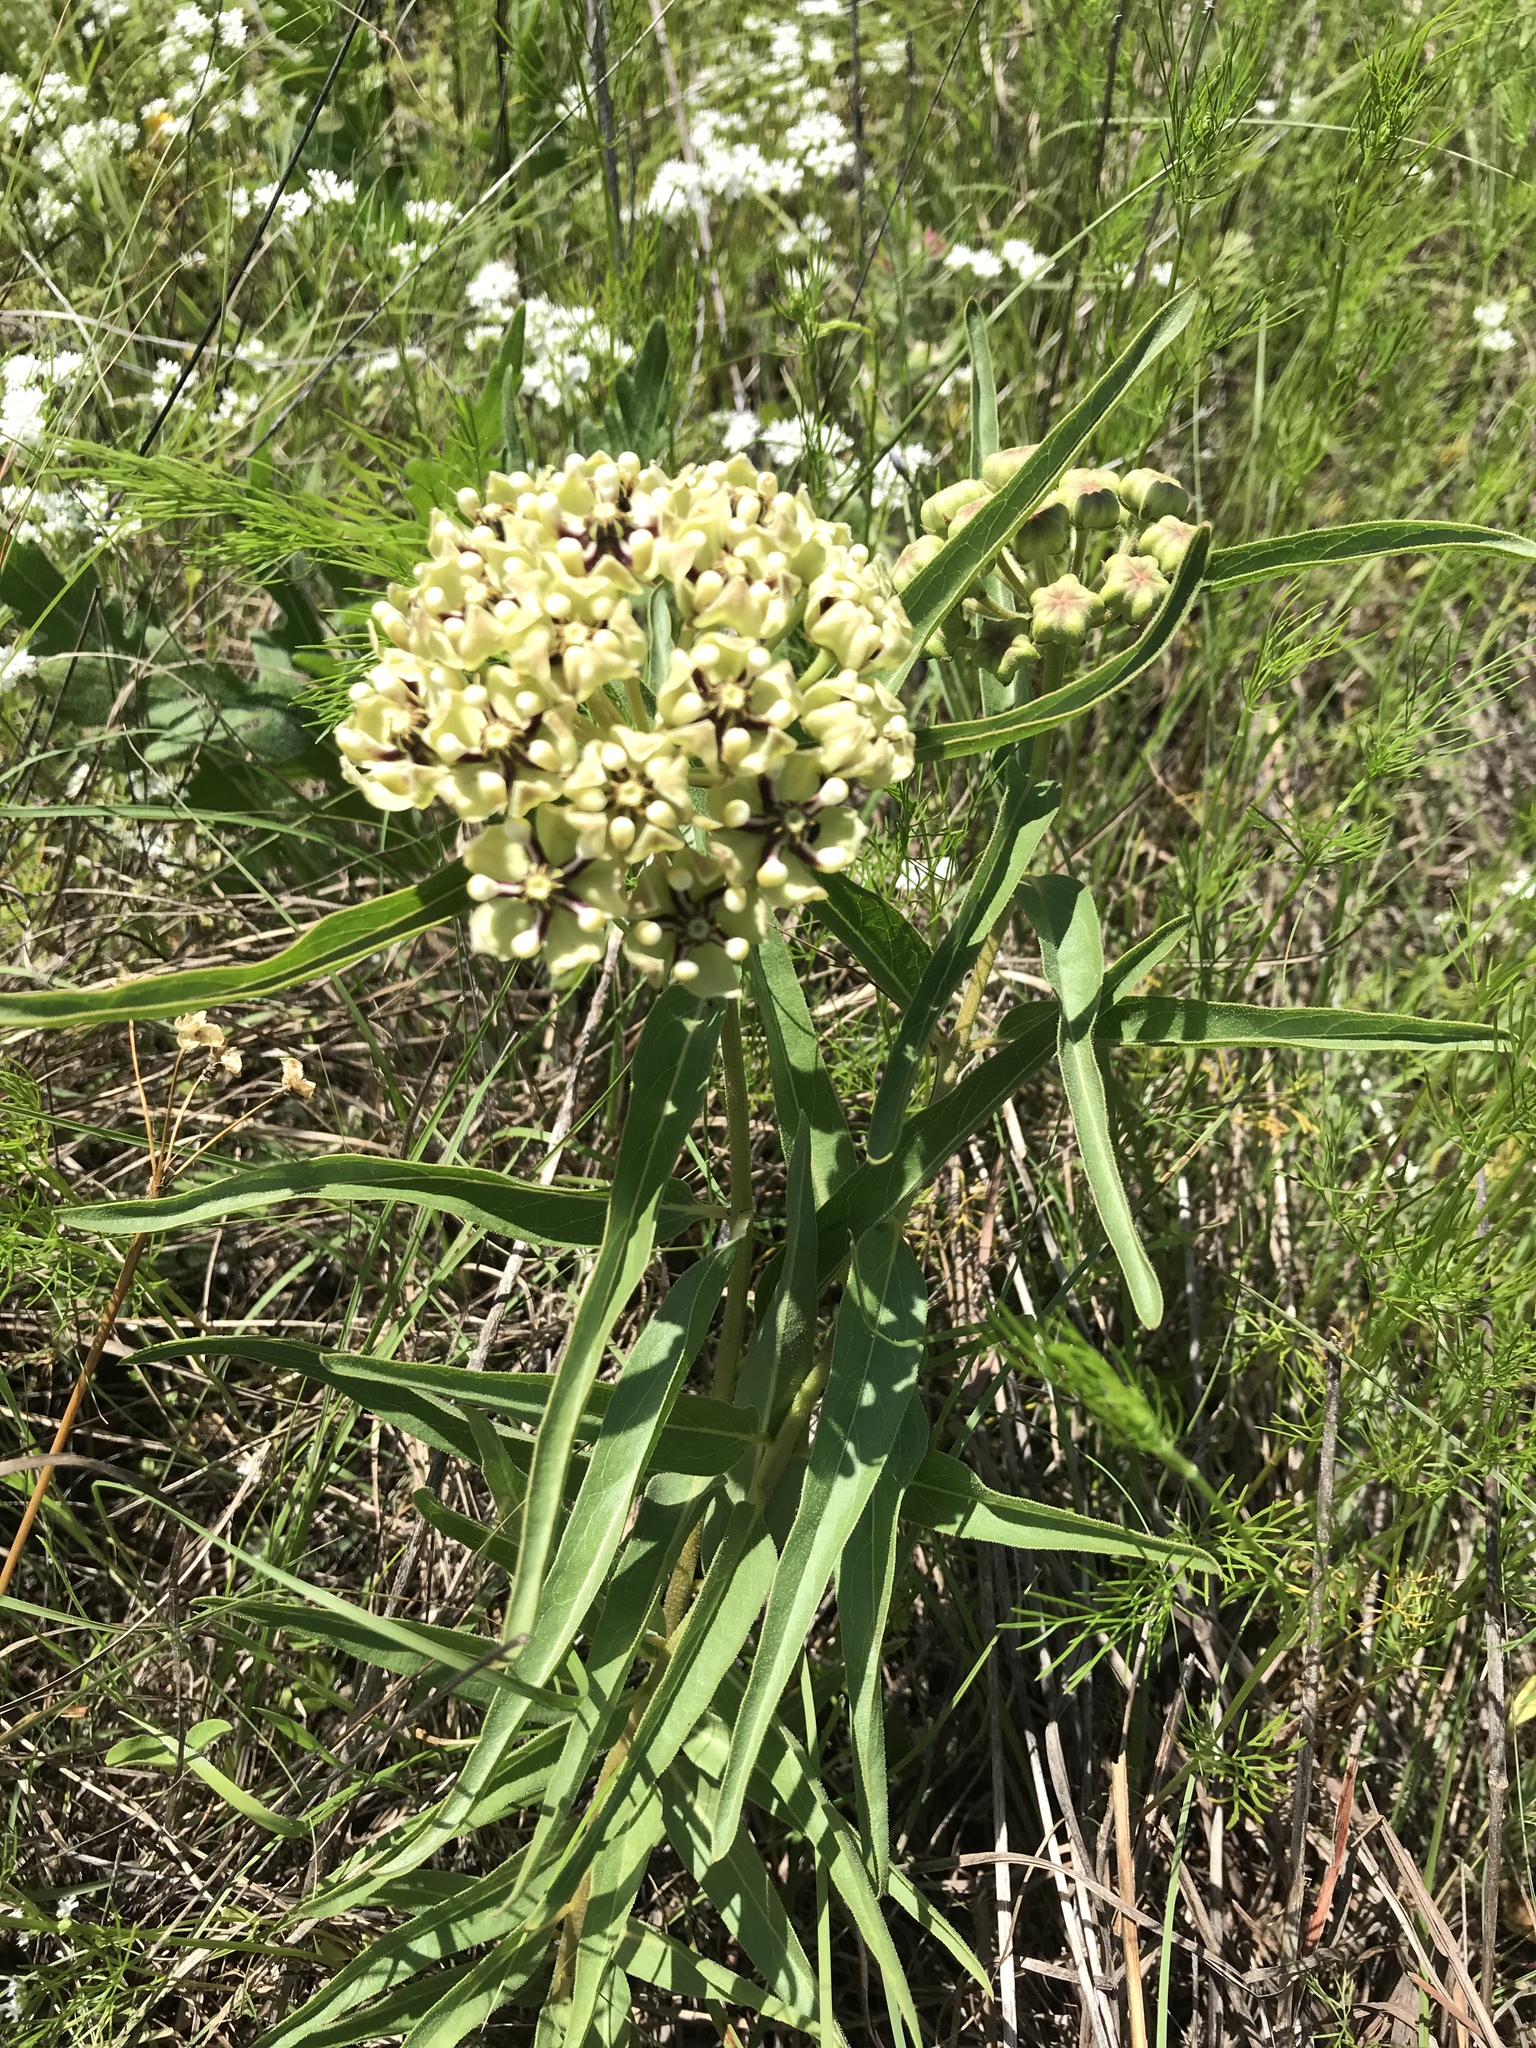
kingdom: Plantae
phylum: Tracheophyta
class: Magnoliopsida
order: Gentianales
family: Apocynaceae
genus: Asclepias
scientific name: Asclepias asperula
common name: Antelope horns
